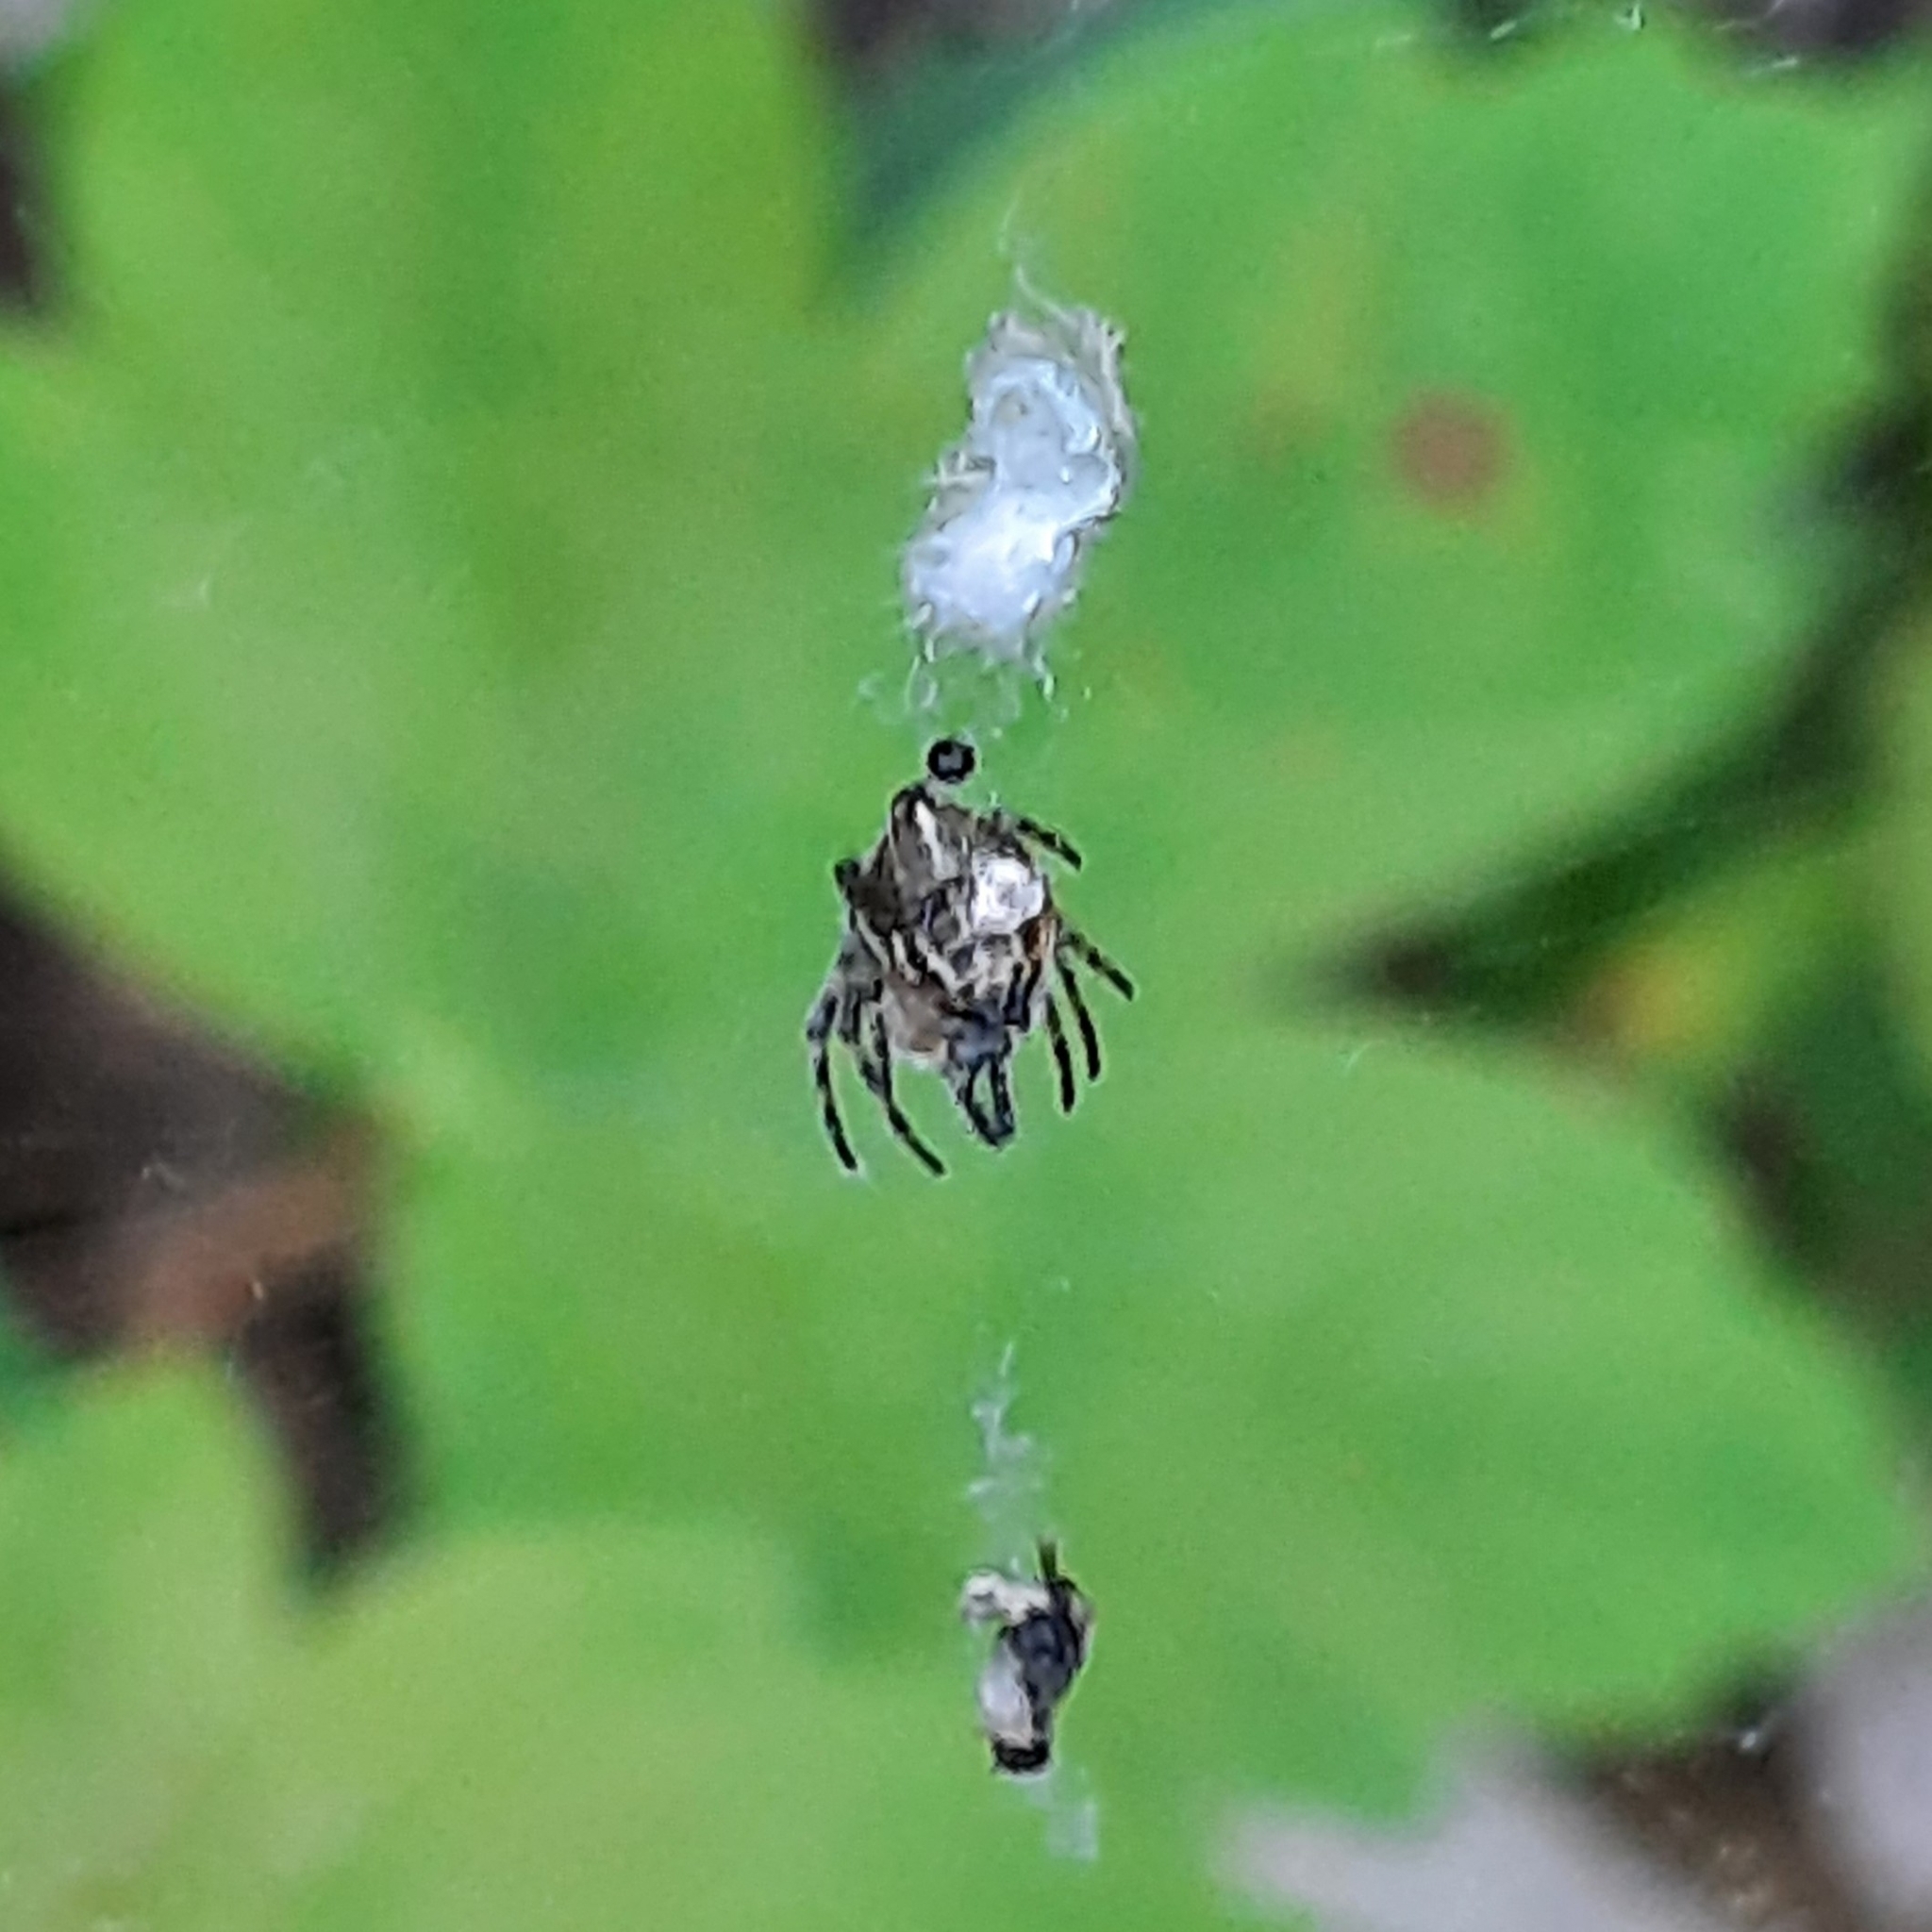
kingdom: Animalia
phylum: Arthropoda
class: Arachnida
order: Araneae
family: Araneidae
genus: Cyclosa
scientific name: Cyclosa
